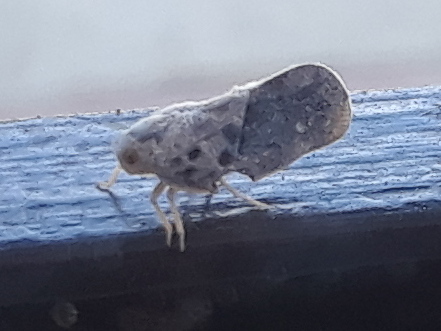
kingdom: Animalia
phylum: Arthropoda
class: Insecta
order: Hemiptera
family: Flatidae
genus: Metcalfa
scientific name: Metcalfa pruinosa
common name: Citrus flatid planthopper
